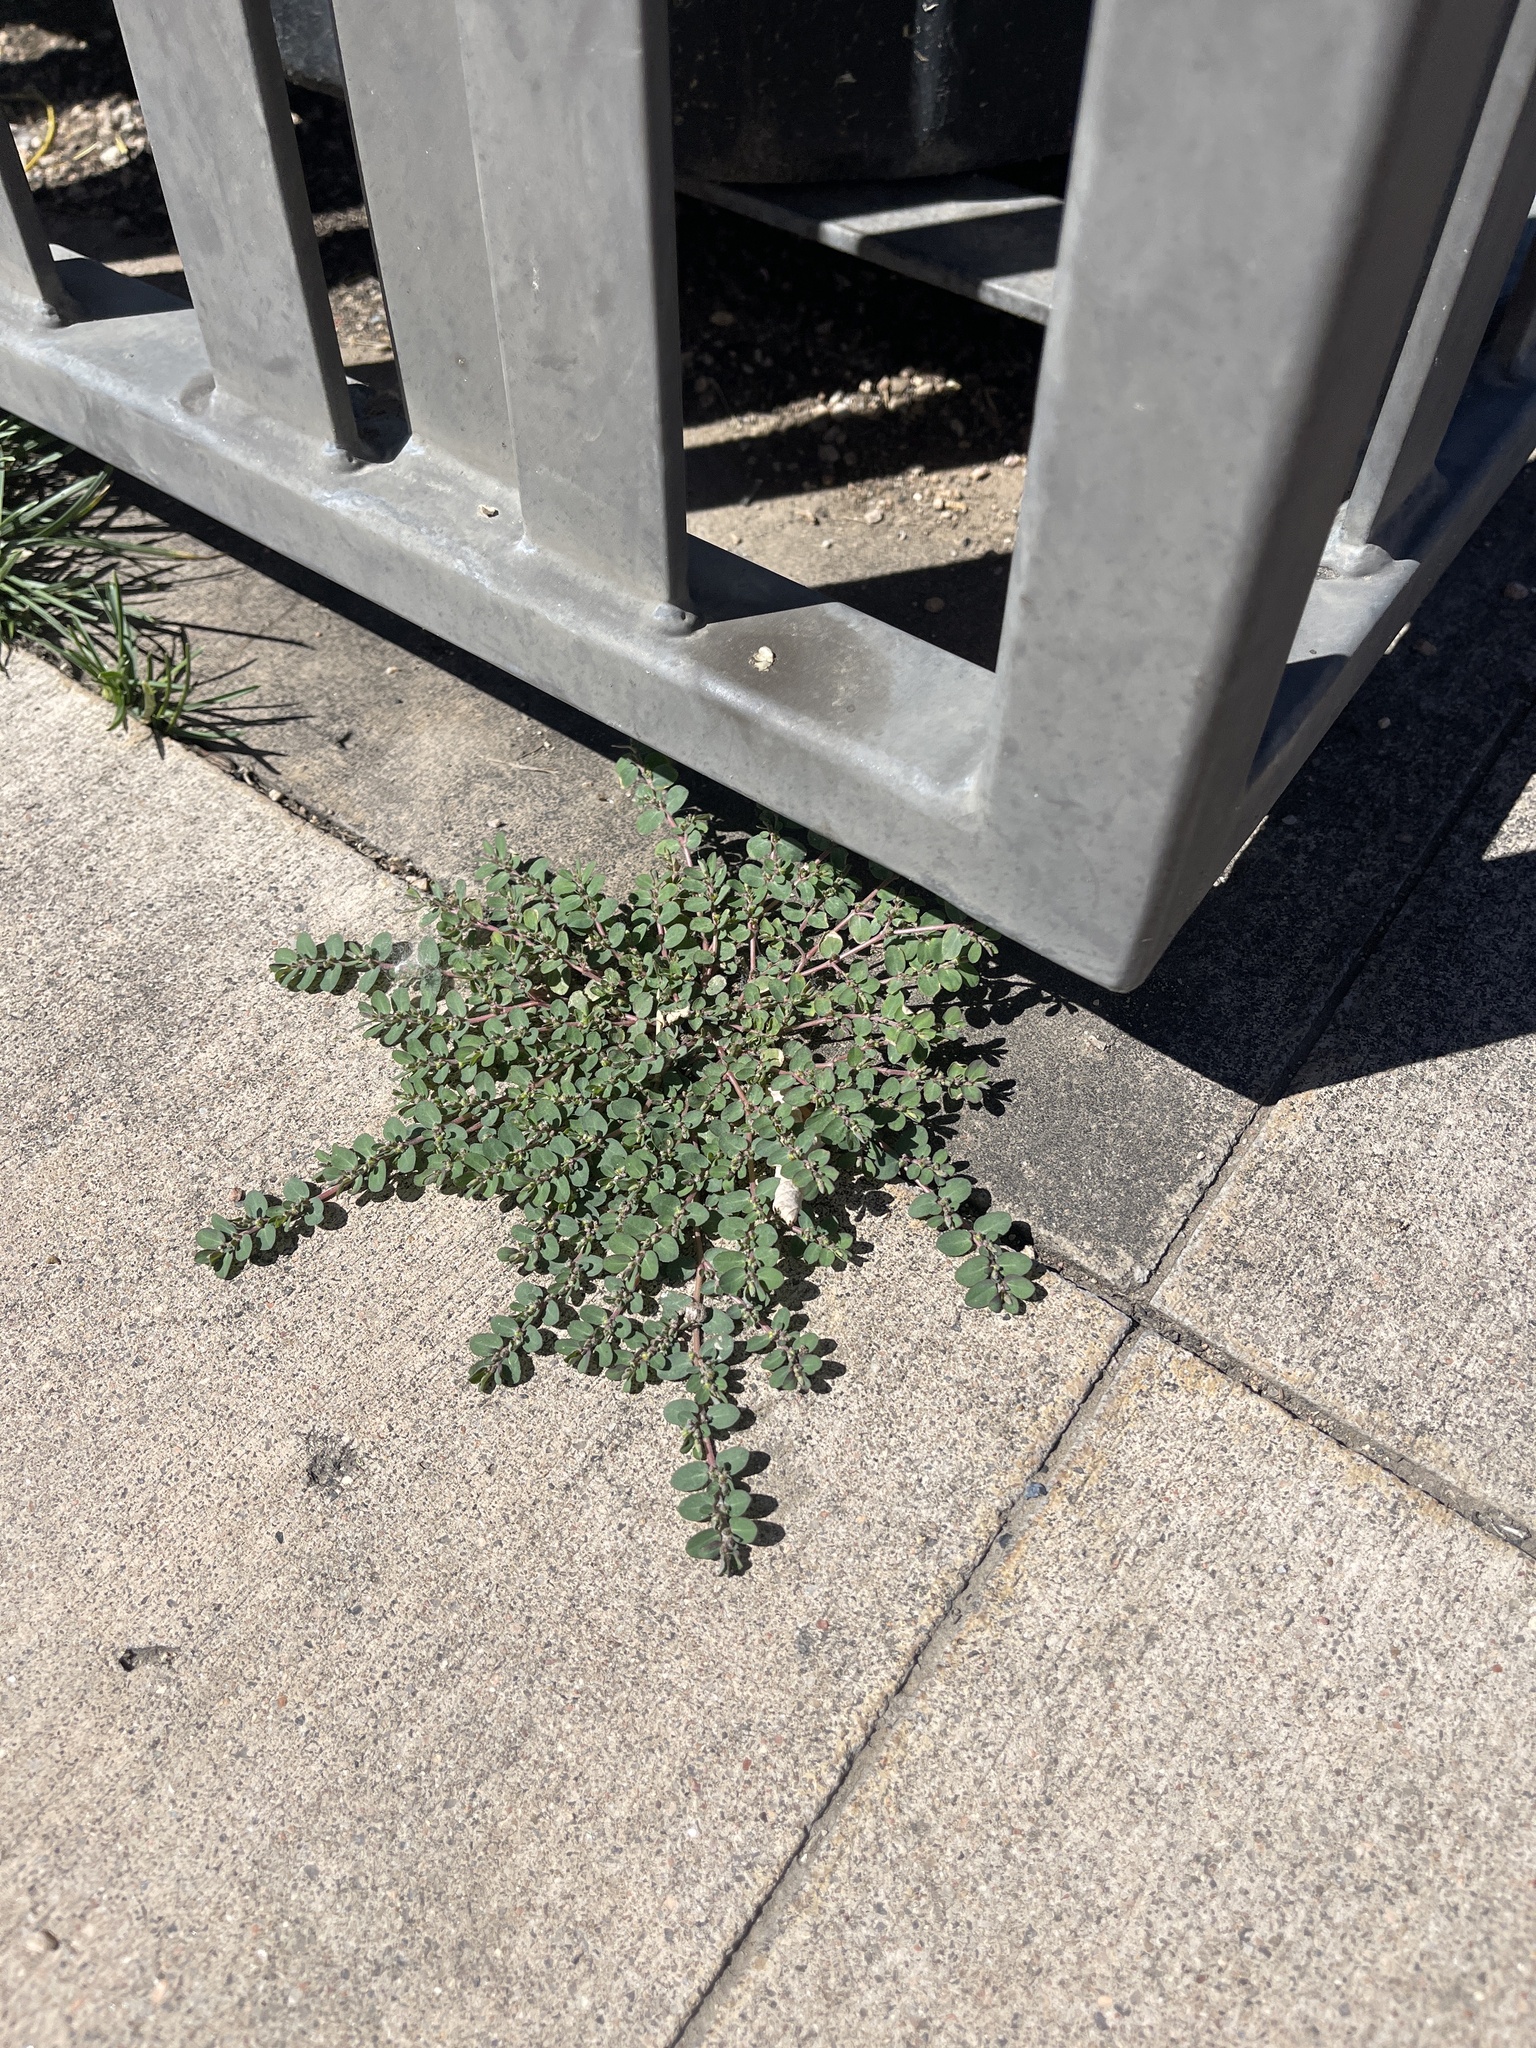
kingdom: Plantae
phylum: Tracheophyta
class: Magnoliopsida
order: Malpighiales
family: Euphorbiaceae
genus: Euphorbia
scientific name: Euphorbia prostrata
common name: Prostrate sandmat
